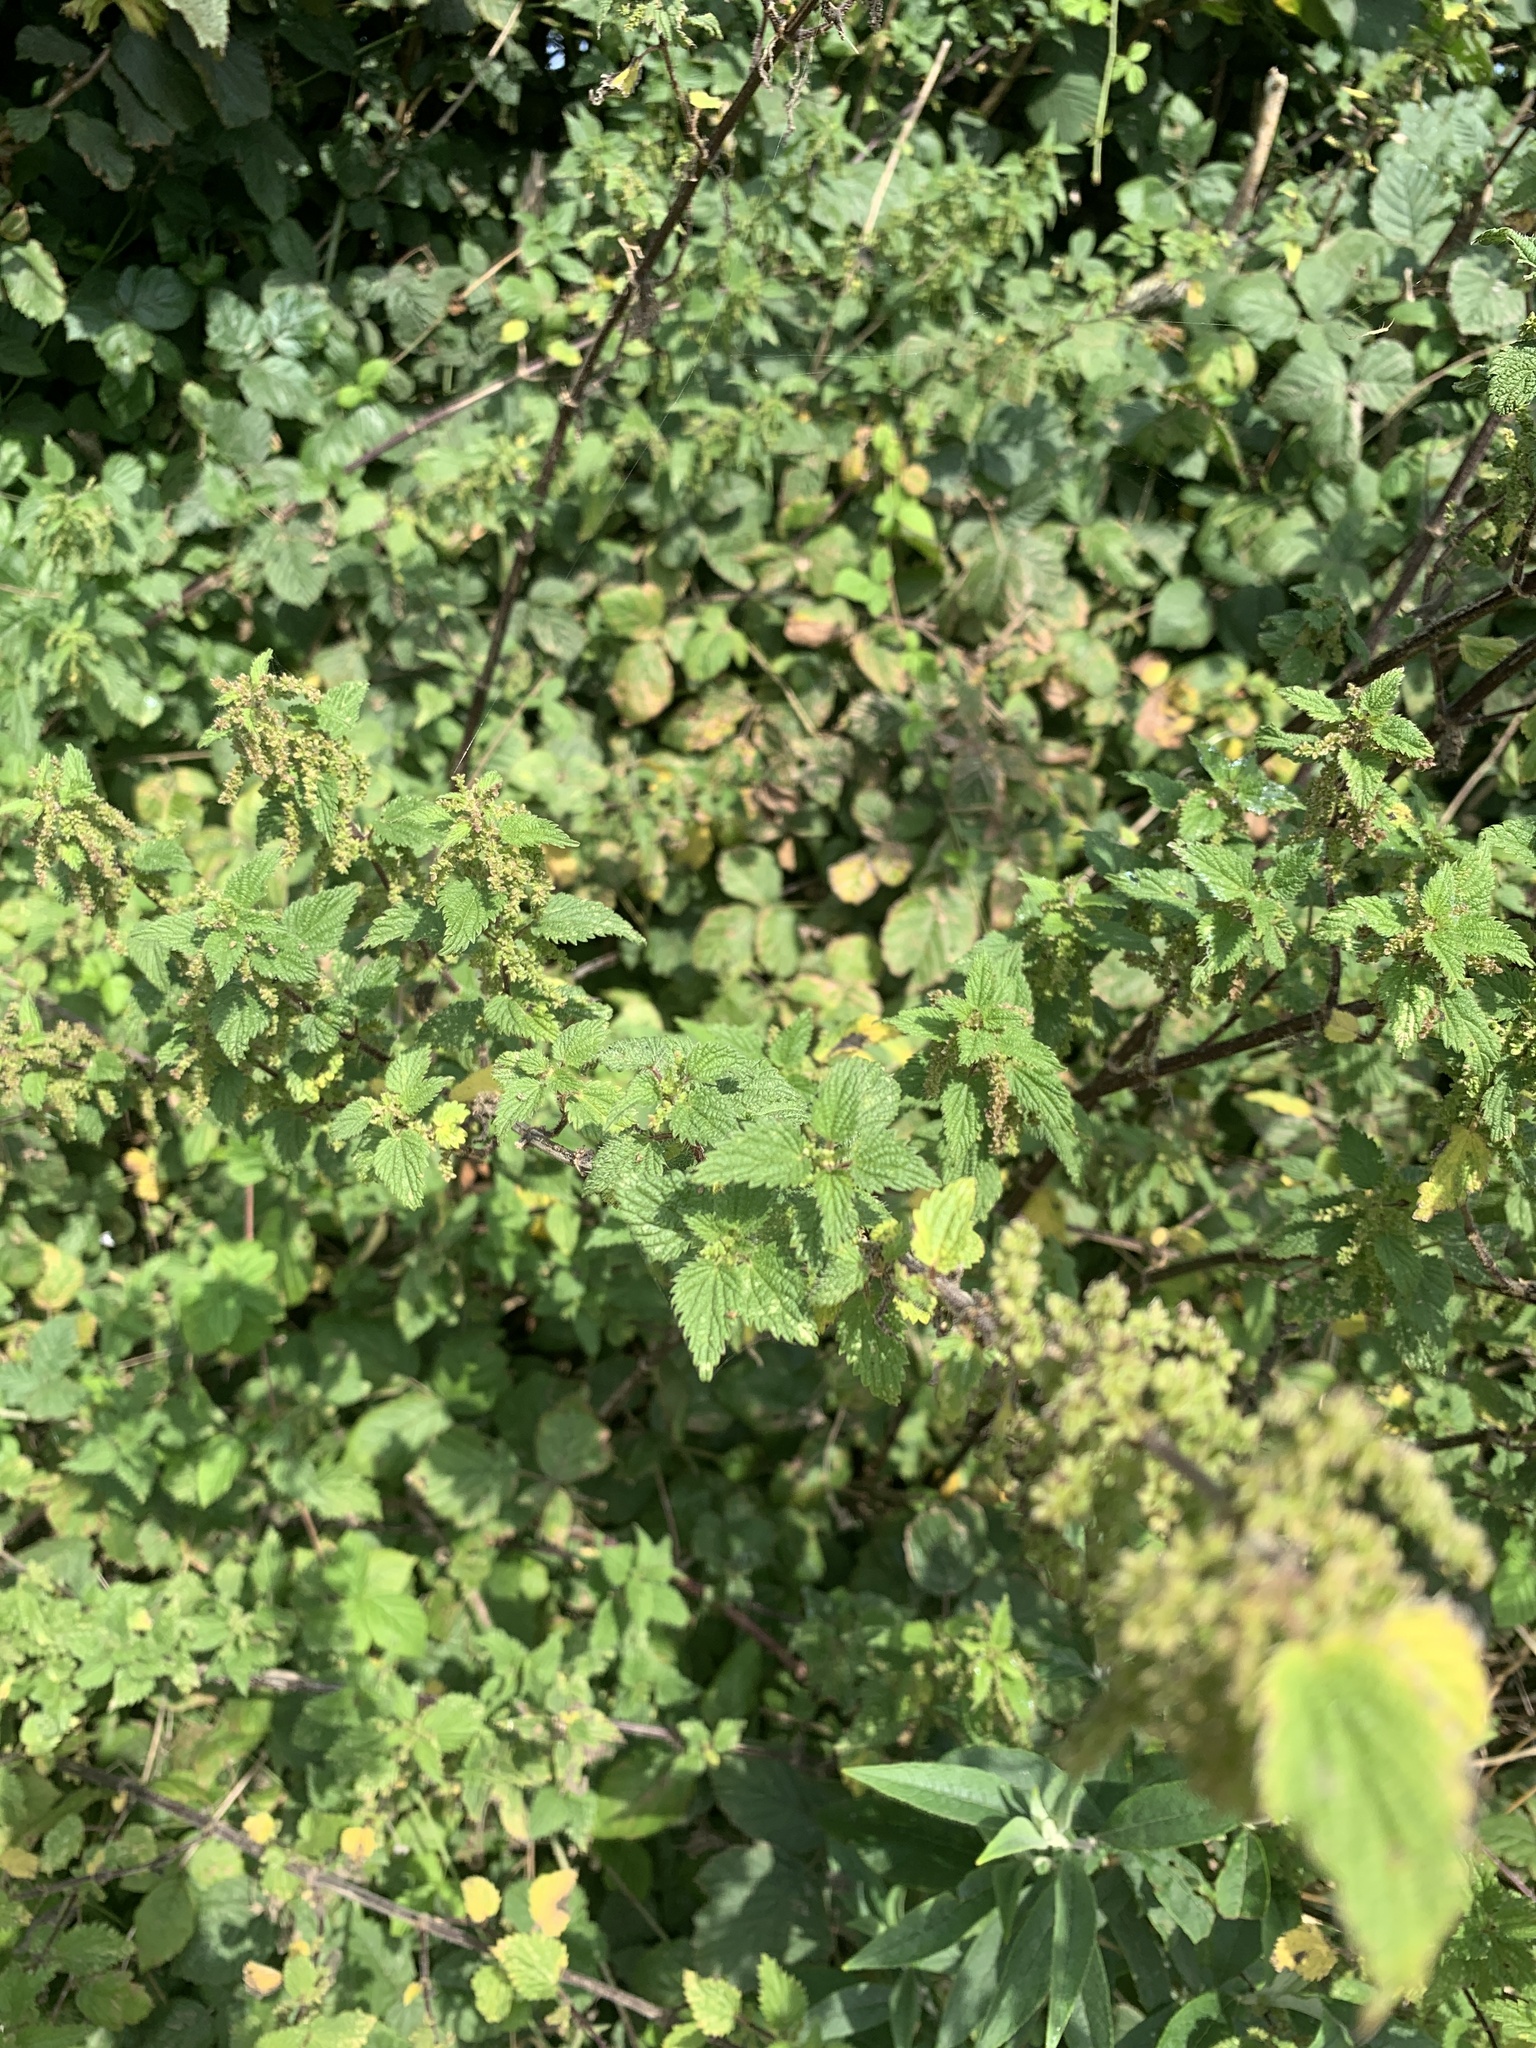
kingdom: Plantae
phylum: Tracheophyta
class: Magnoliopsida
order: Rosales
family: Urticaceae
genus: Urtica
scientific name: Urtica dioica
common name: Common nettle
